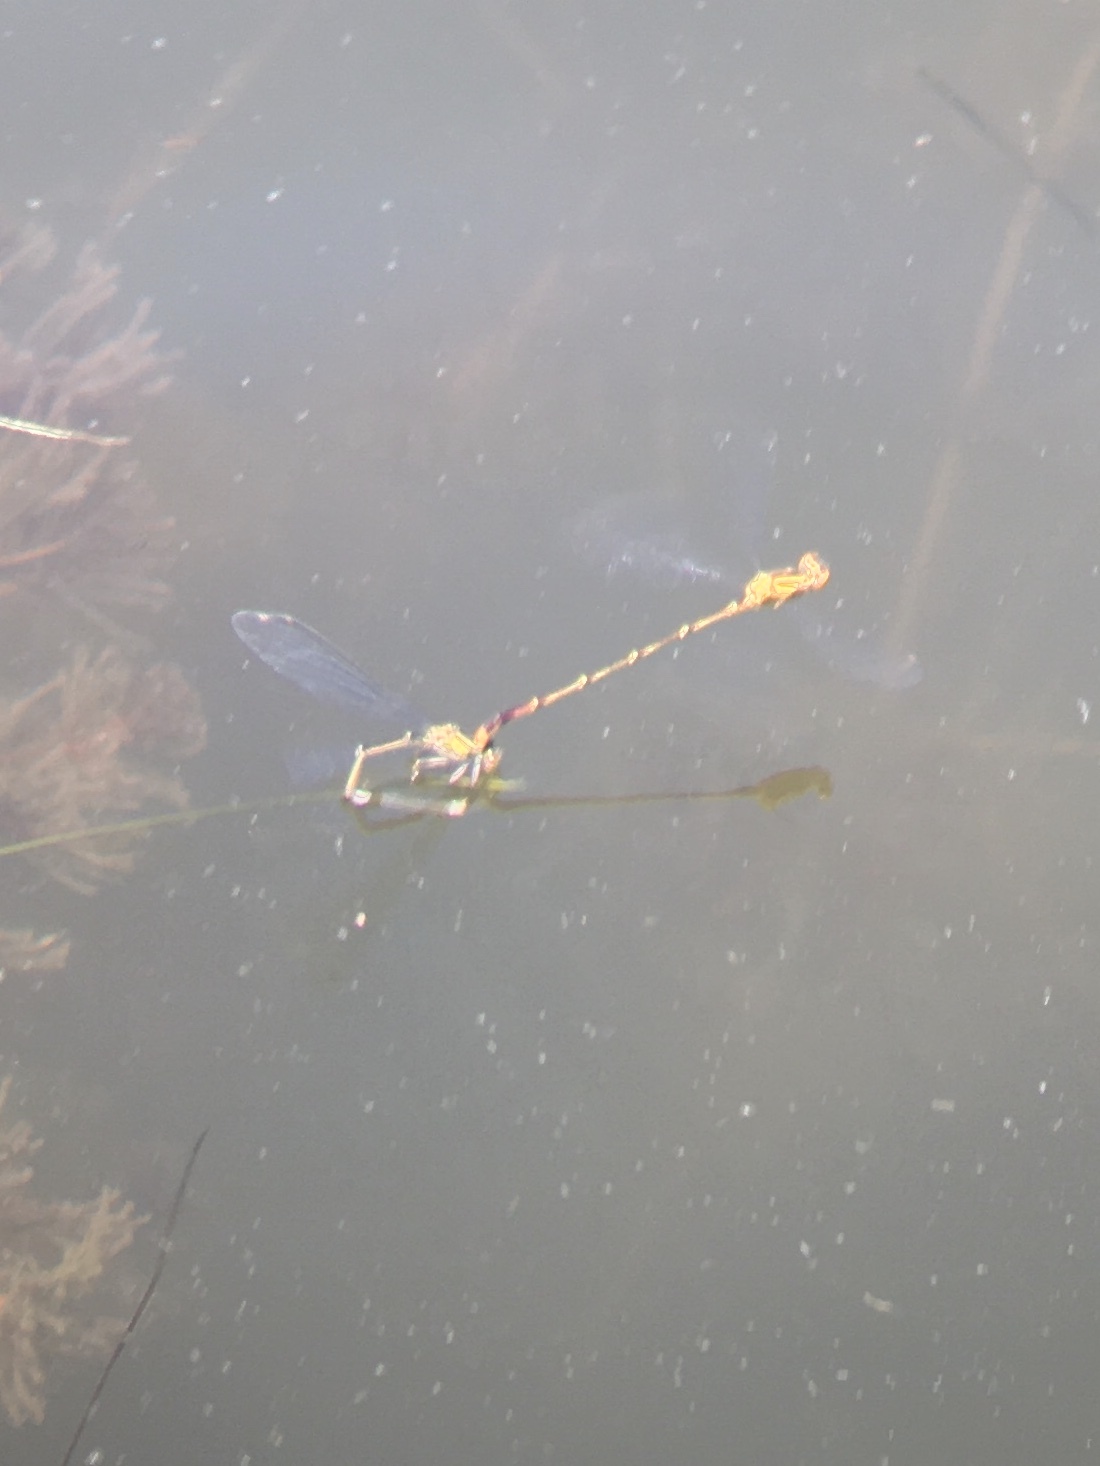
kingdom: Animalia
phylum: Arthropoda
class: Insecta
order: Odonata
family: Coenagrionidae
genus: Enallagma
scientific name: Enallagma signatum
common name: Orange bluet
